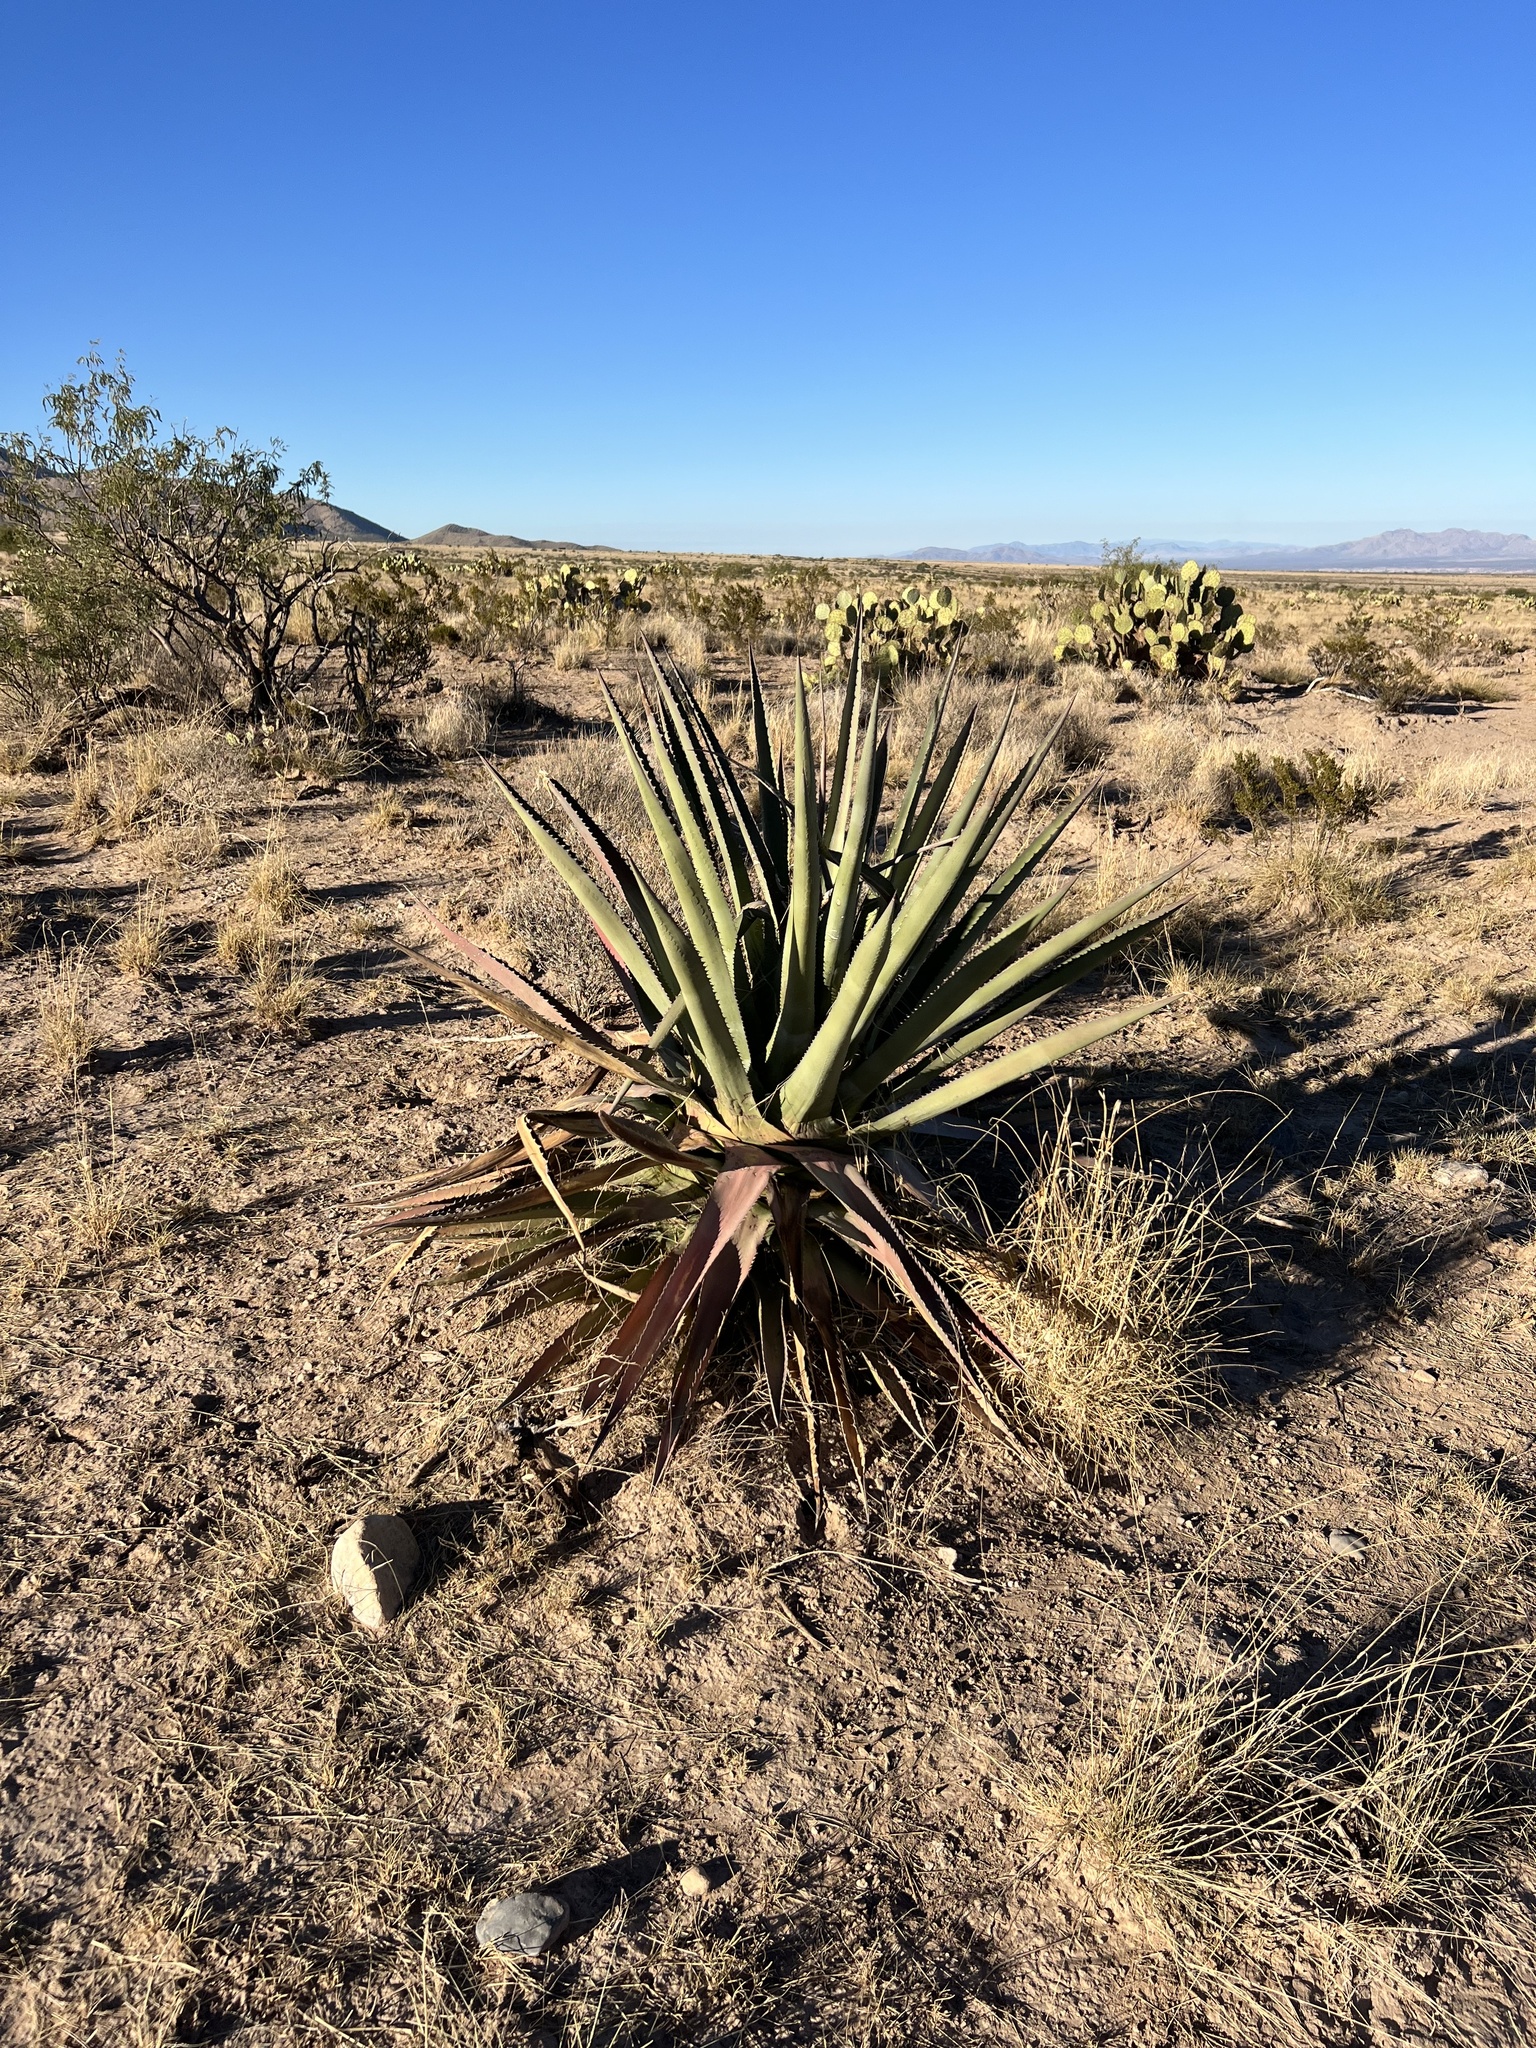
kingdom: Plantae
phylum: Tracheophyta
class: Liliopsida
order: Asparagales
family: Asparagaceae
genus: Agave
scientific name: Agave palmeri
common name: Palmer agave
